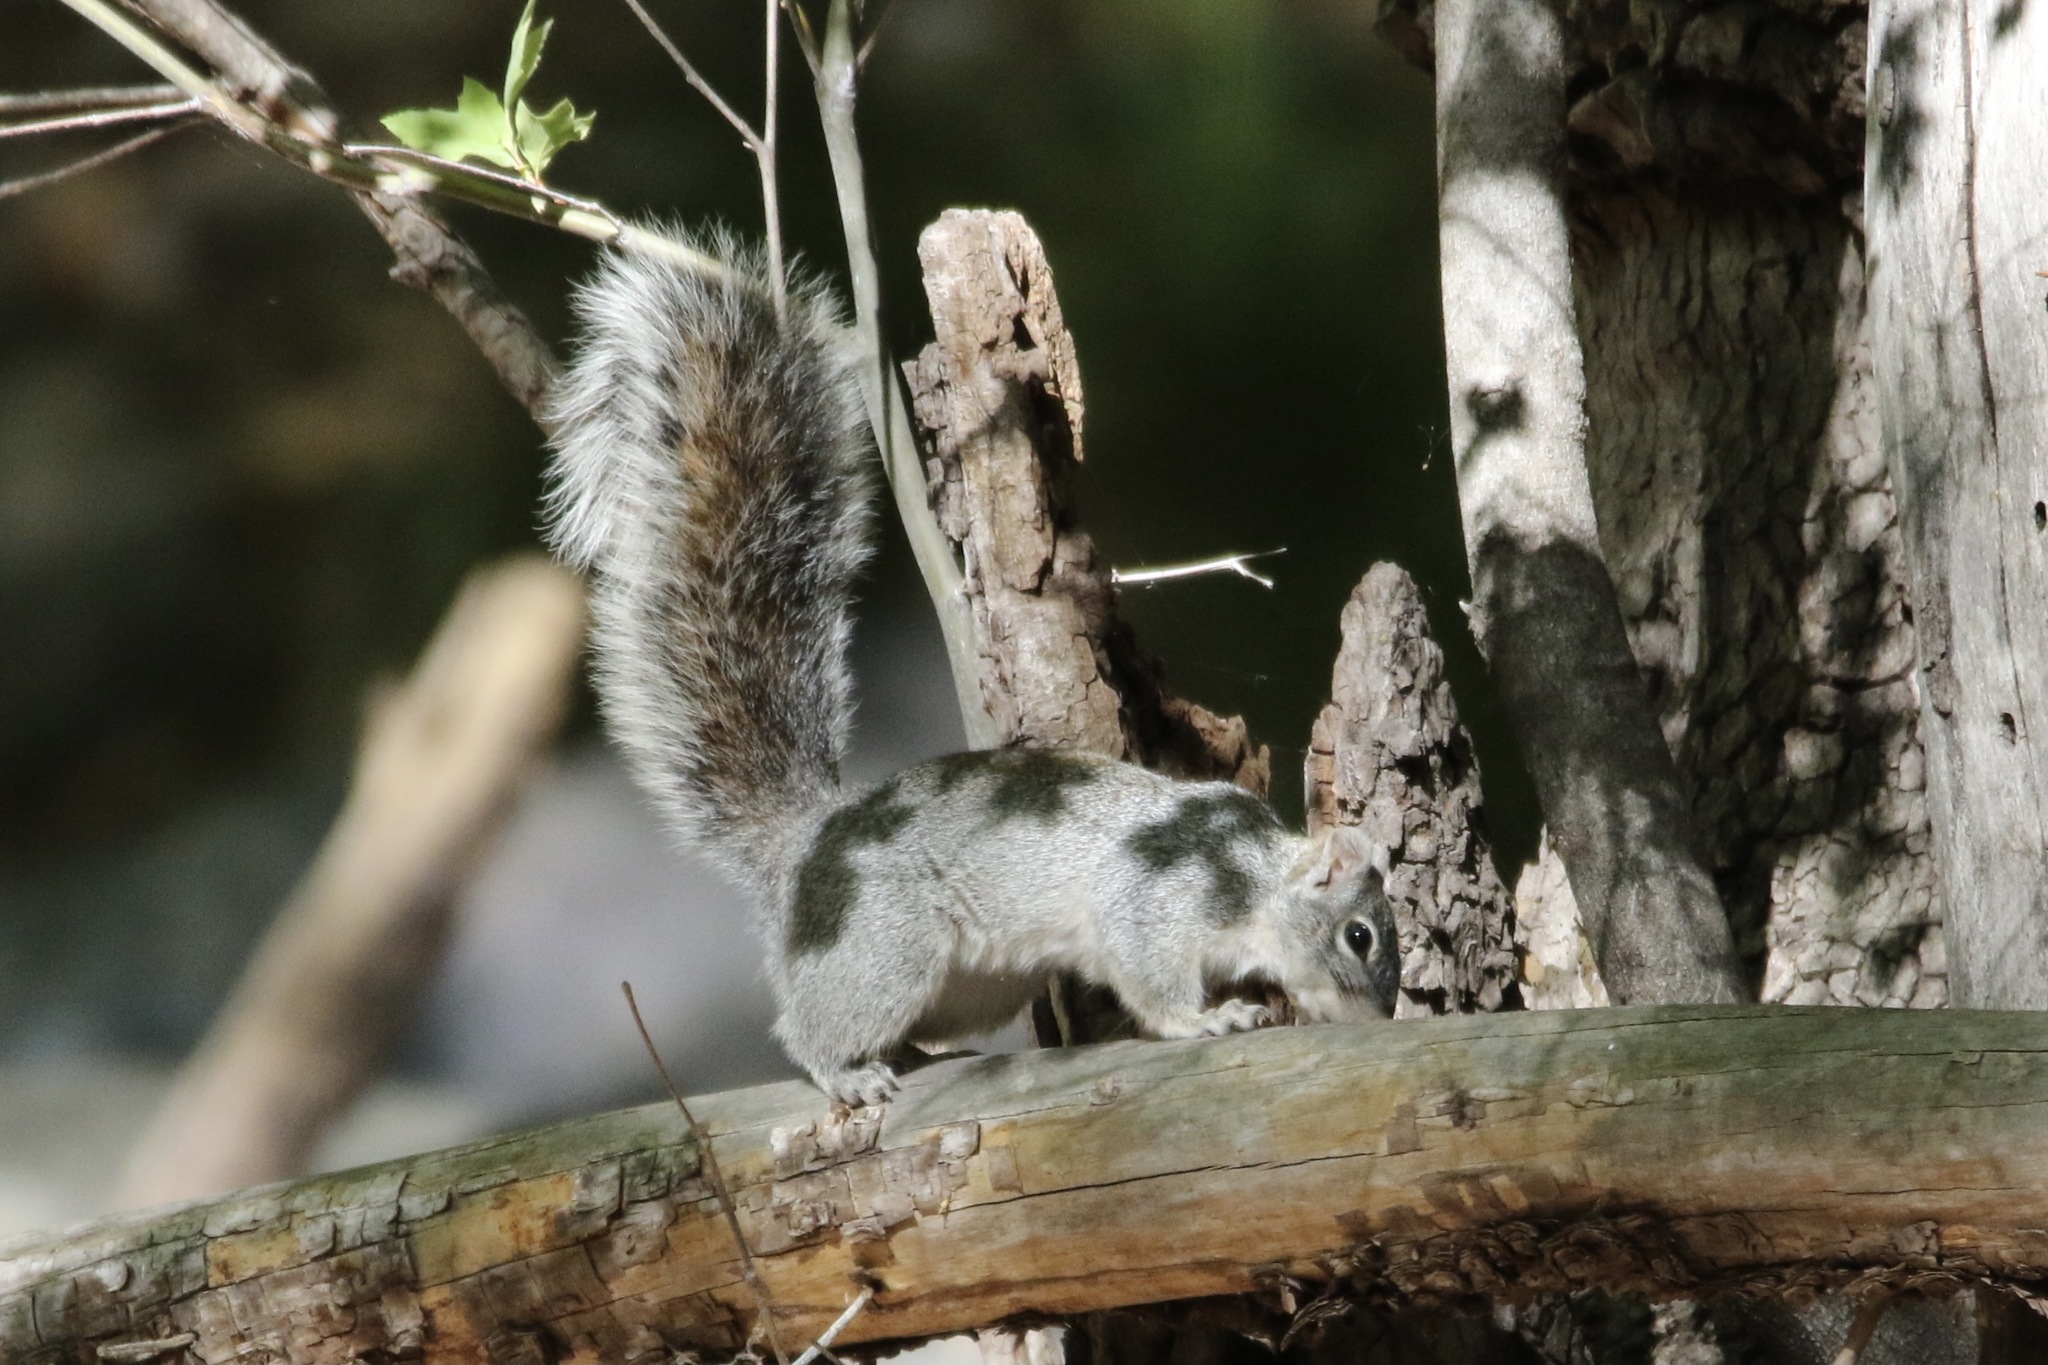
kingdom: Animalia
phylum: Chordata
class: Mammalia
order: Rodentia
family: Sciuridae
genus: Sciurus
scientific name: Sciurus arizonensis
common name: Arizona gray squirrel
